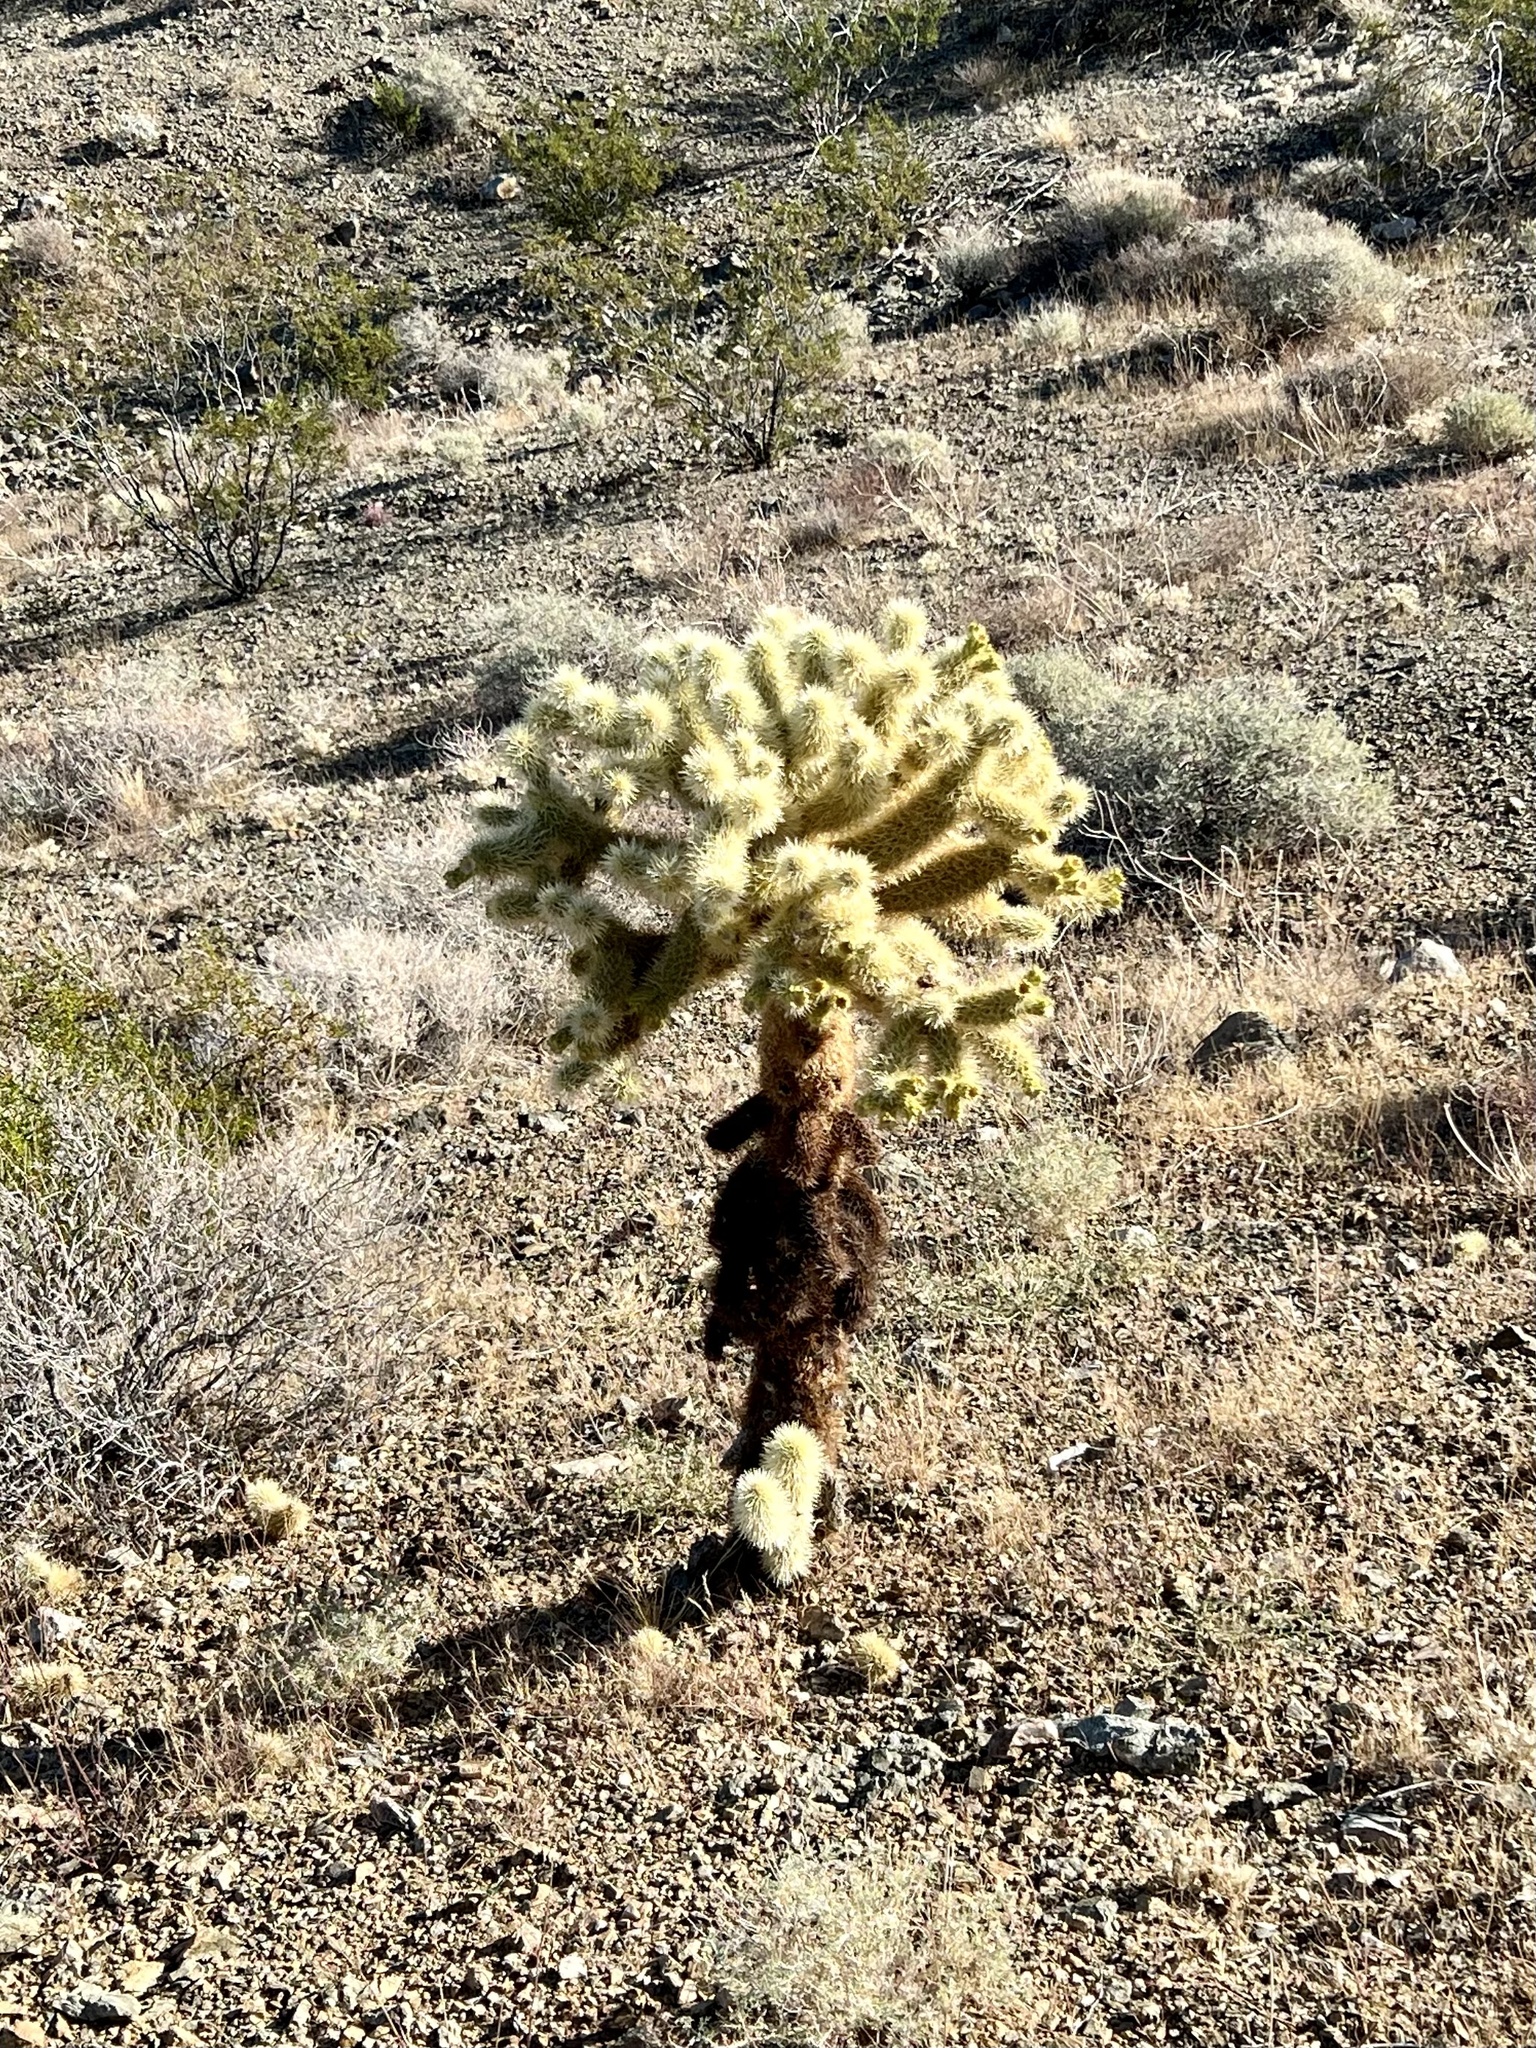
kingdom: Plantae
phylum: Tracheophyta
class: Magnoliopsida
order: Caryophyllales
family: Cactaceae
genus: Cylindropuntia
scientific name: Cylindropuntia fosbergii
